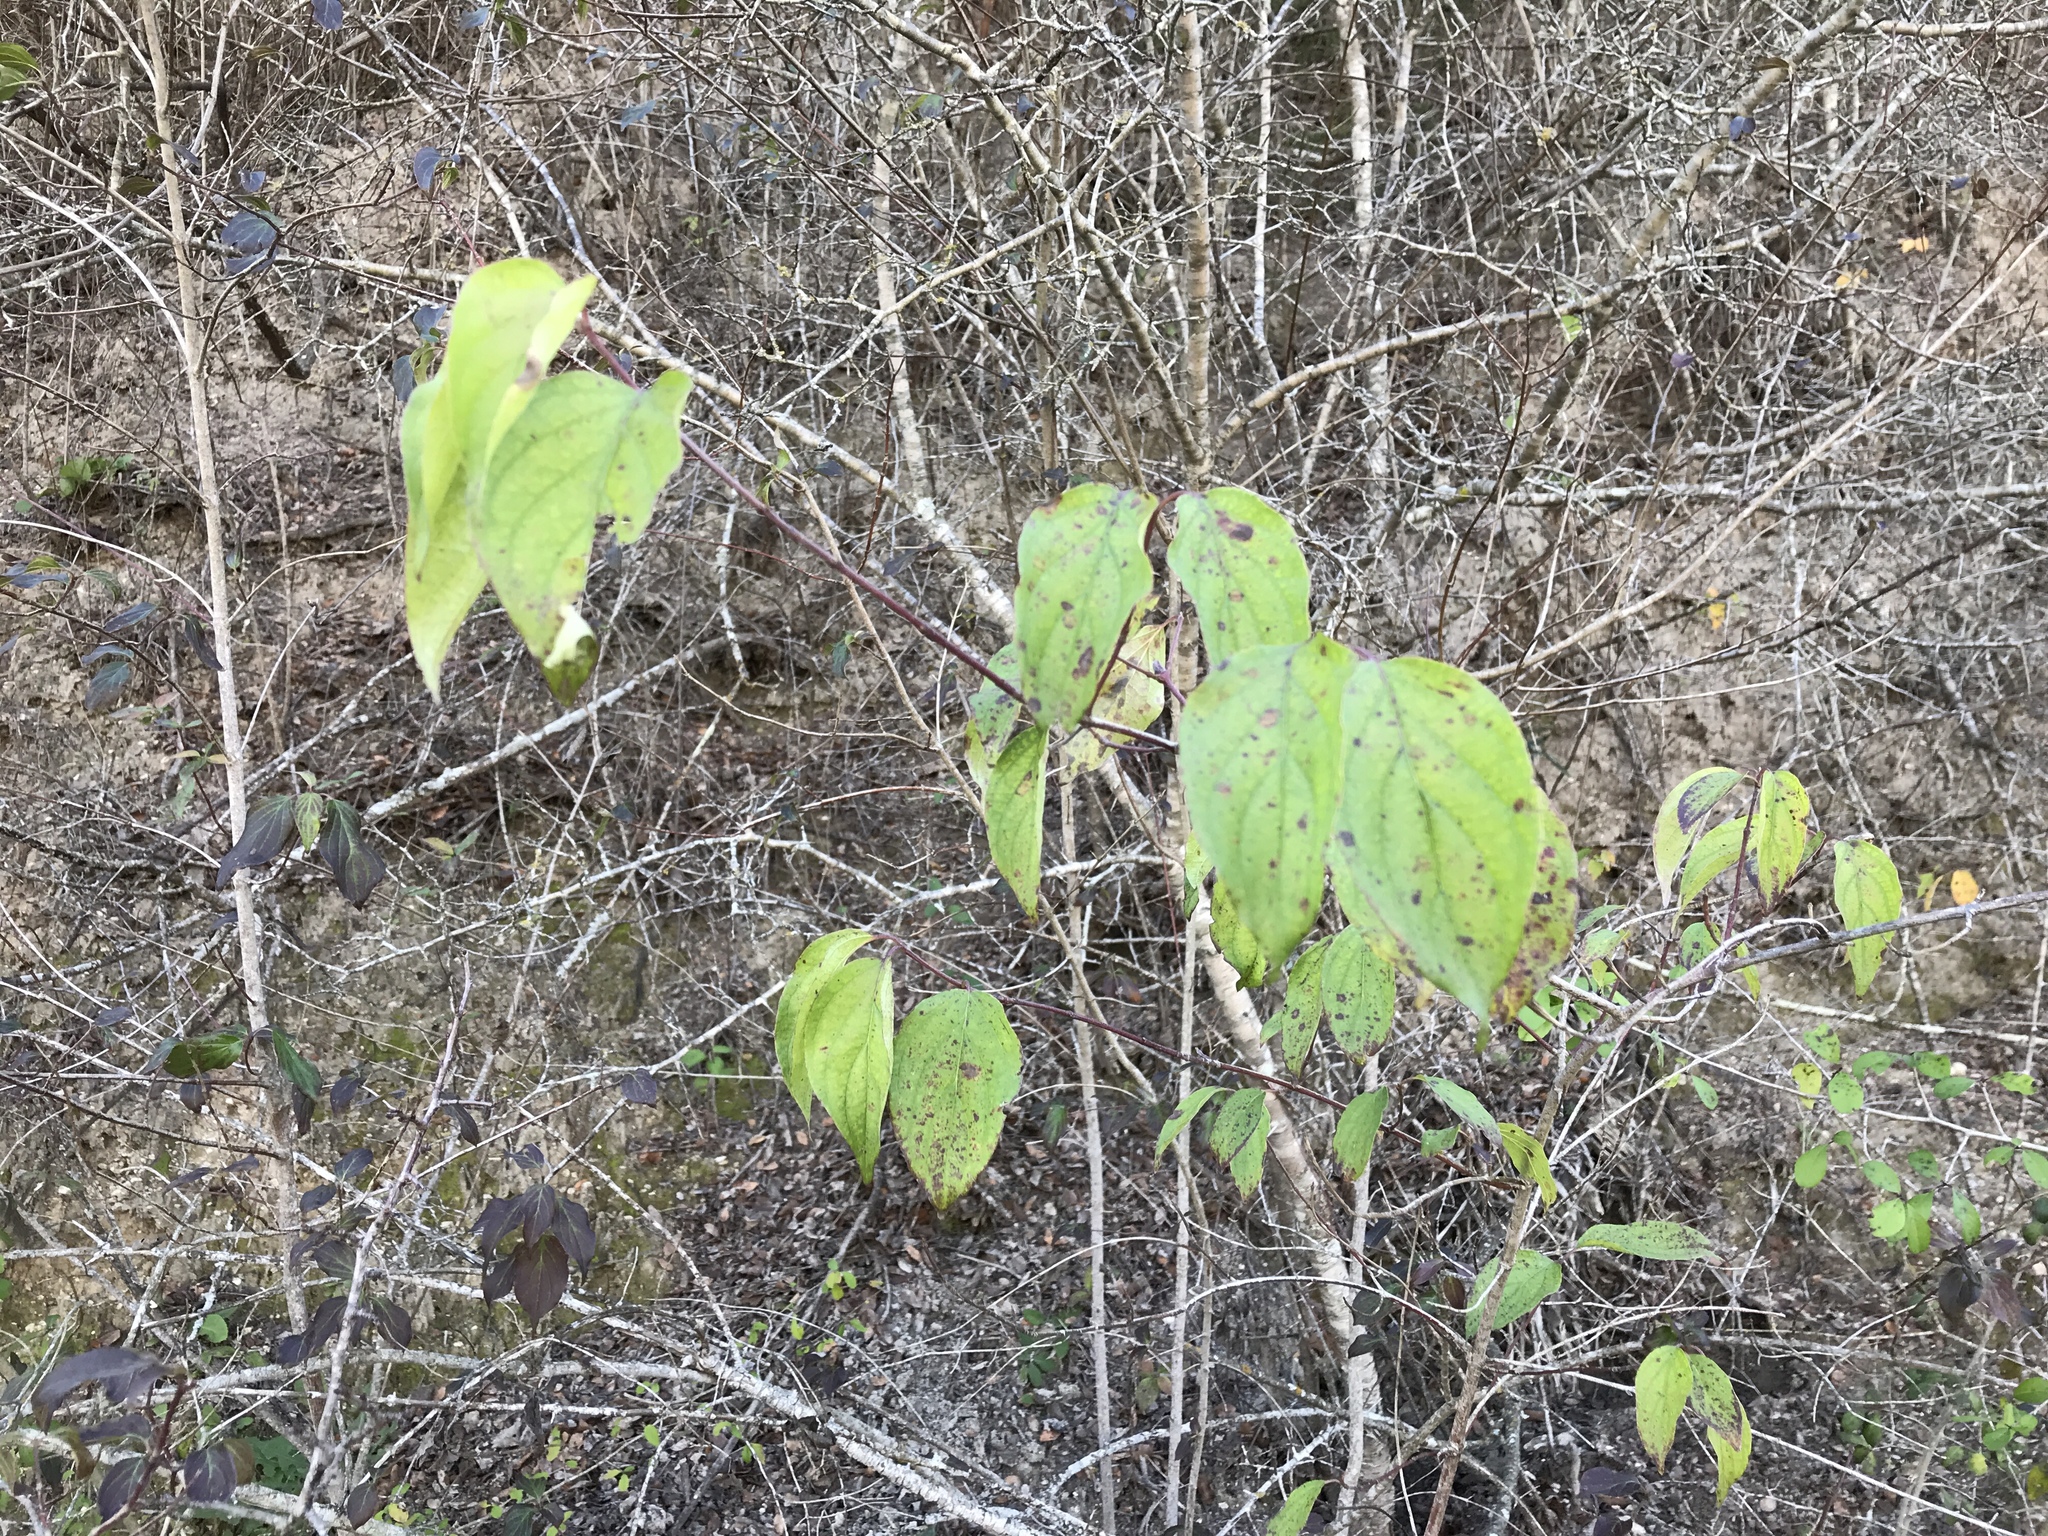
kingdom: Plantae
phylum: Tracheophyta
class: Magnoliopsida
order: Cornales
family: Cornaceae
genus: Cornus
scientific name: Cornus drummondii
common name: Rough-leaf dogwood
